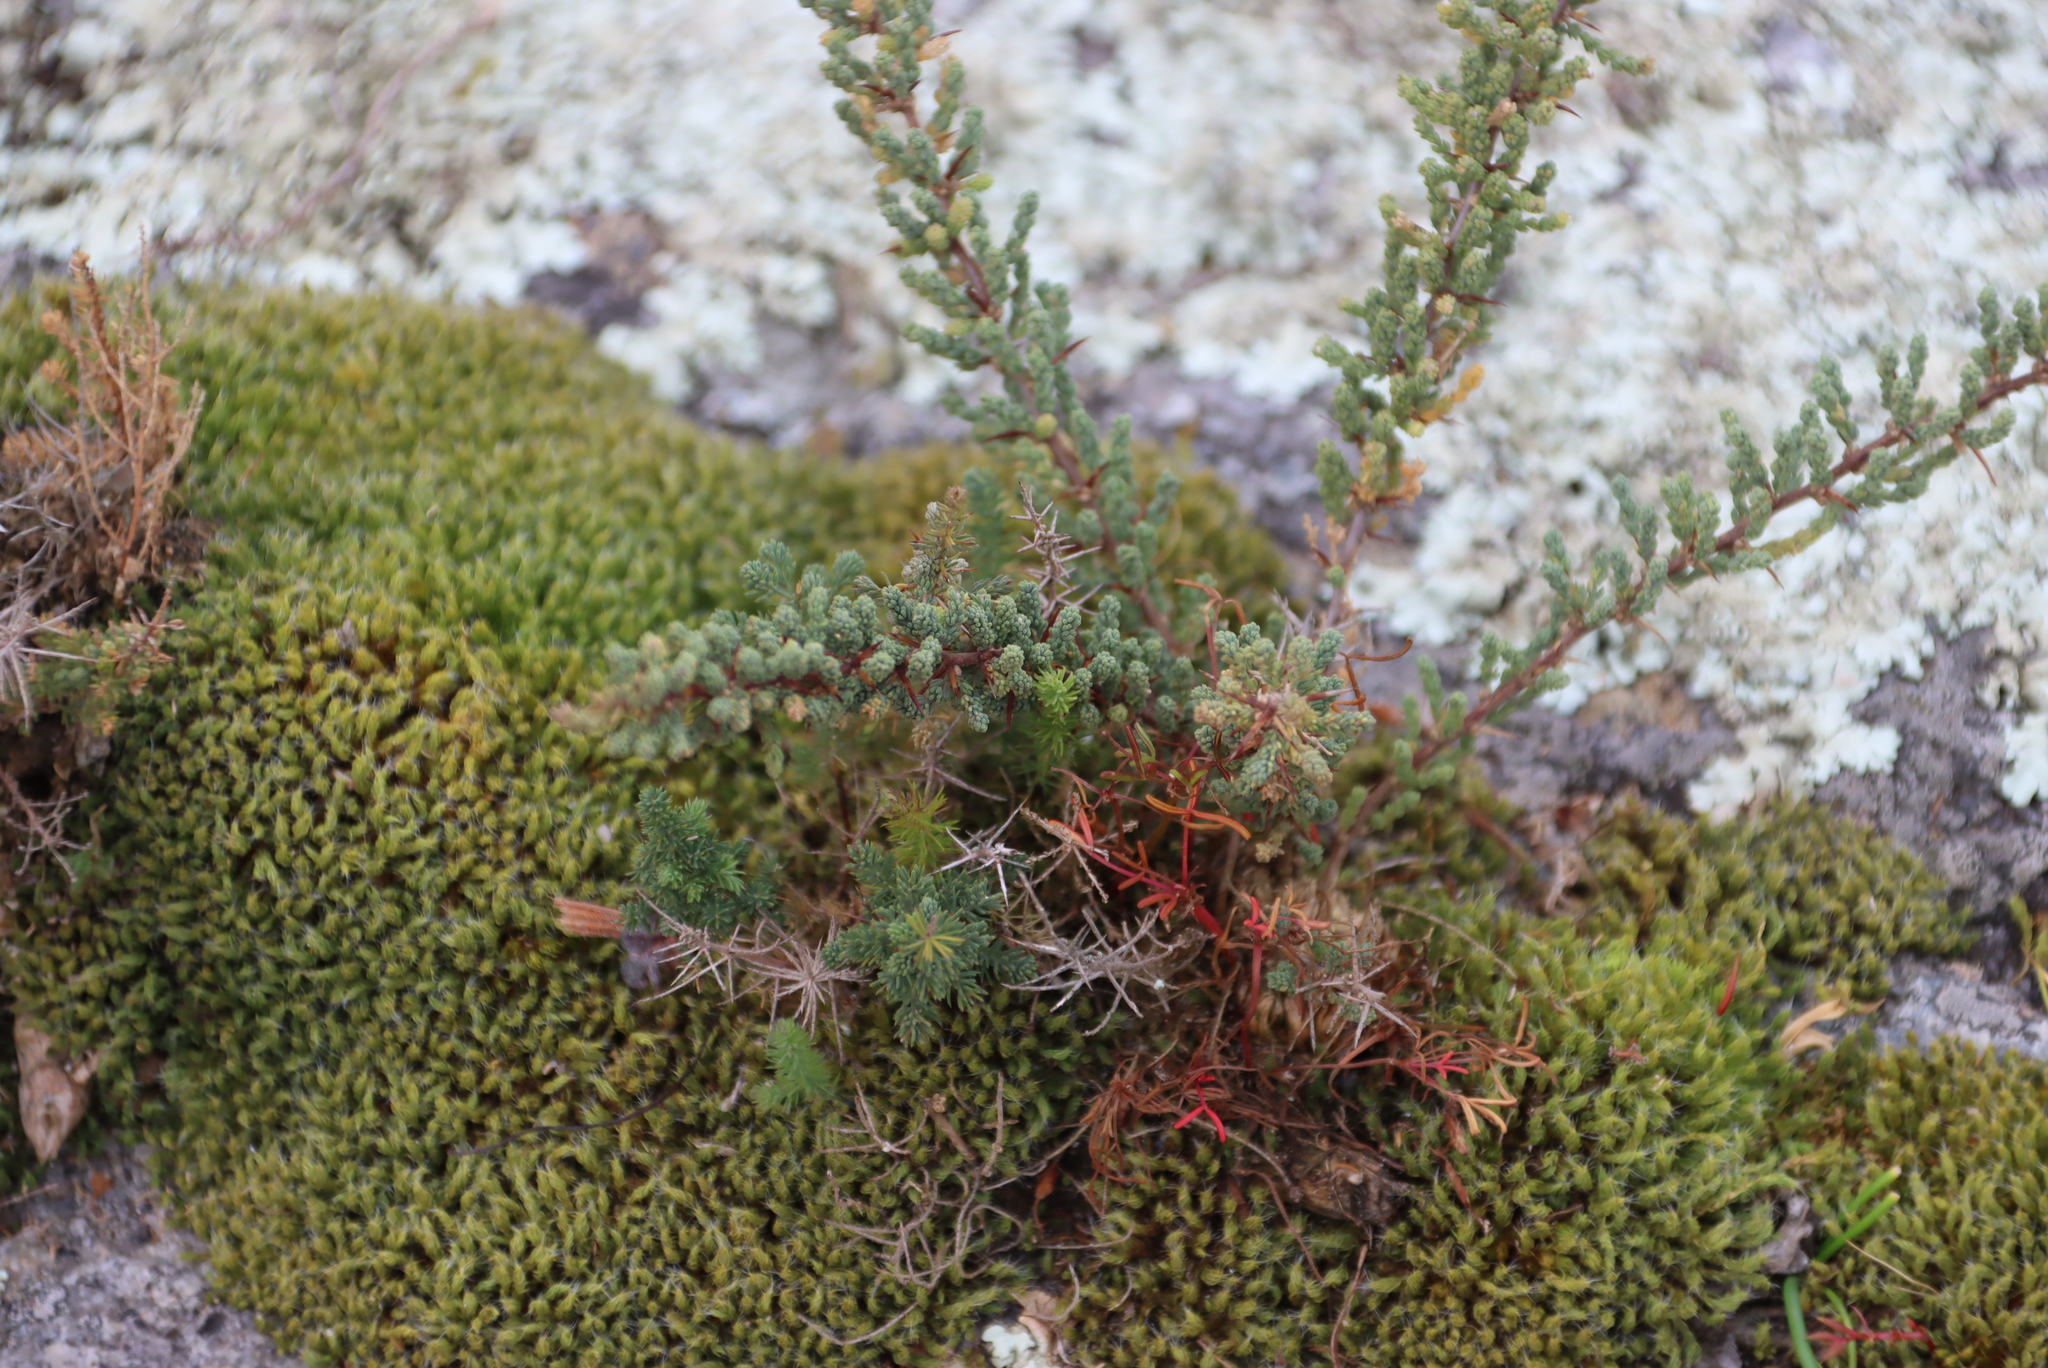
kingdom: Plantae
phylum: Tracheophyta
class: Liliopsida
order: Asparagales
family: Asparagaceae
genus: Asparagus
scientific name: Asparagus capensis
